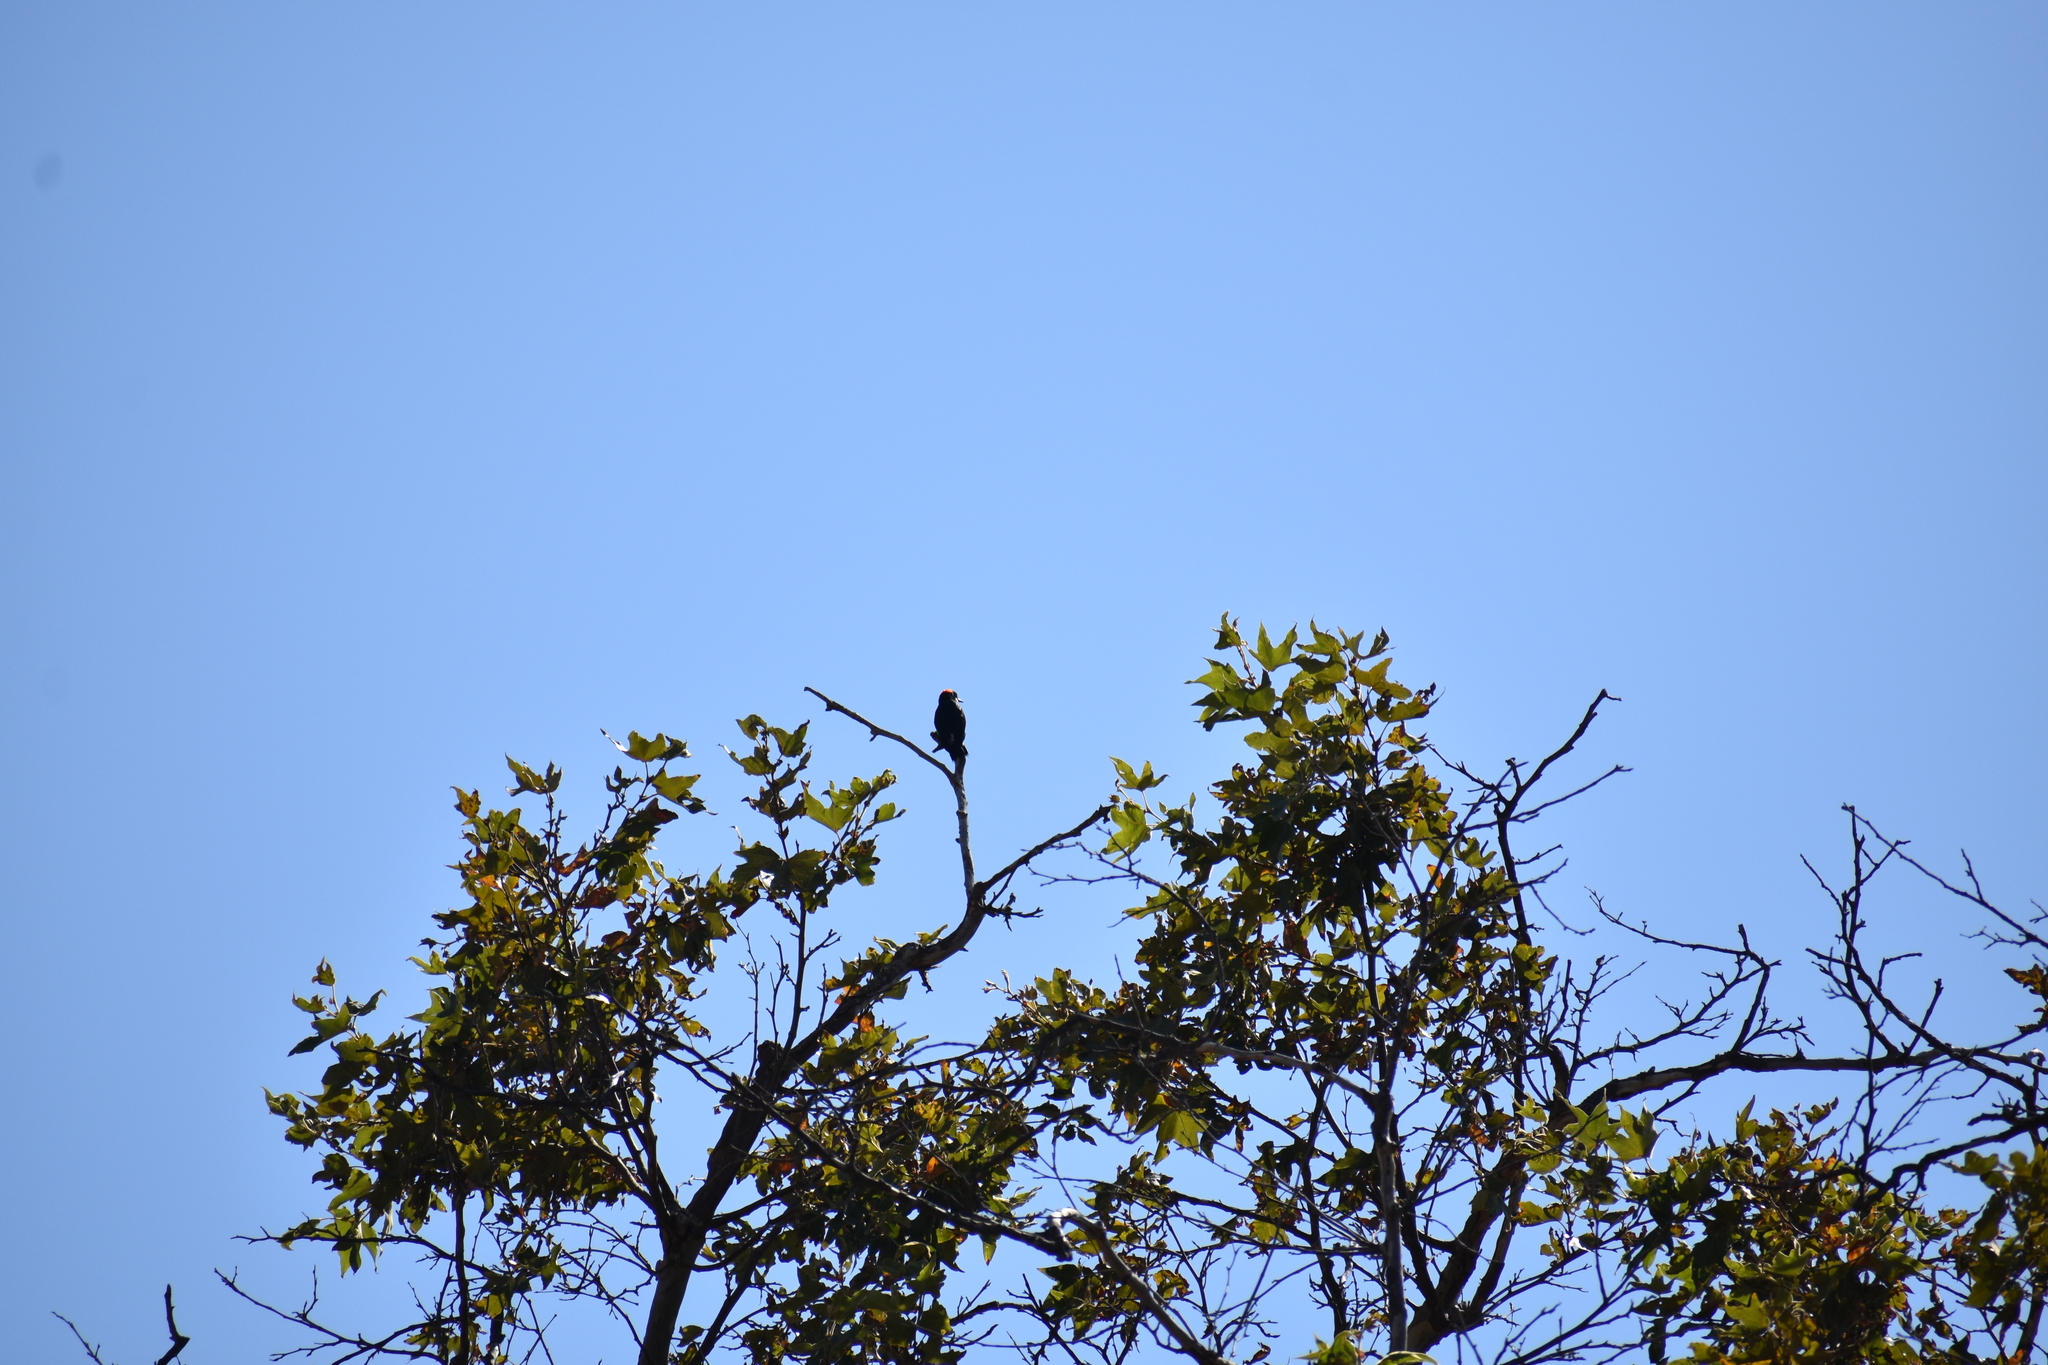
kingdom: Animalia
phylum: Chordata
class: Aves
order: Piciformes
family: Picidae
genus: Melanerpes
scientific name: Melanerpes formicivorus
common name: Acorn woodpecker
